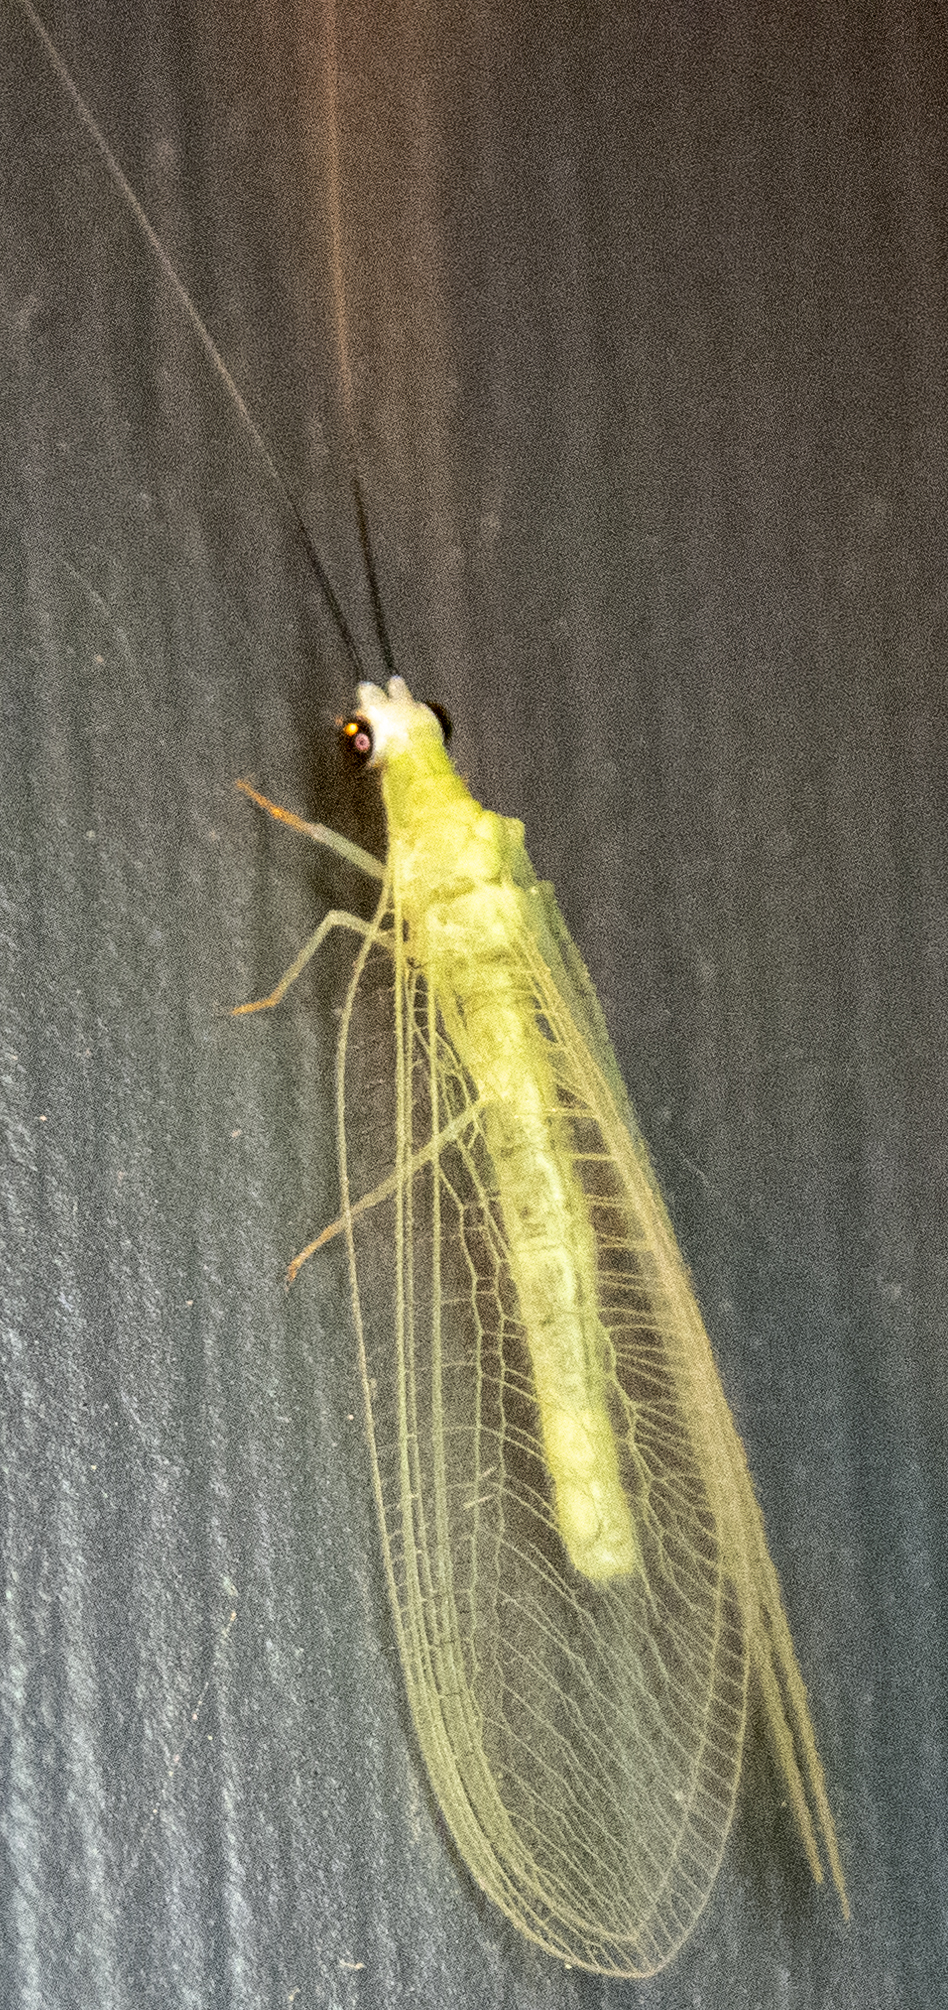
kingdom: Animalia
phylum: Arthropoda
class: Insecta
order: Neuroptera
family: Chrysopidae
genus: Chrysopa
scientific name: Chrysopa nigricornis
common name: Black-horned green lacewing
